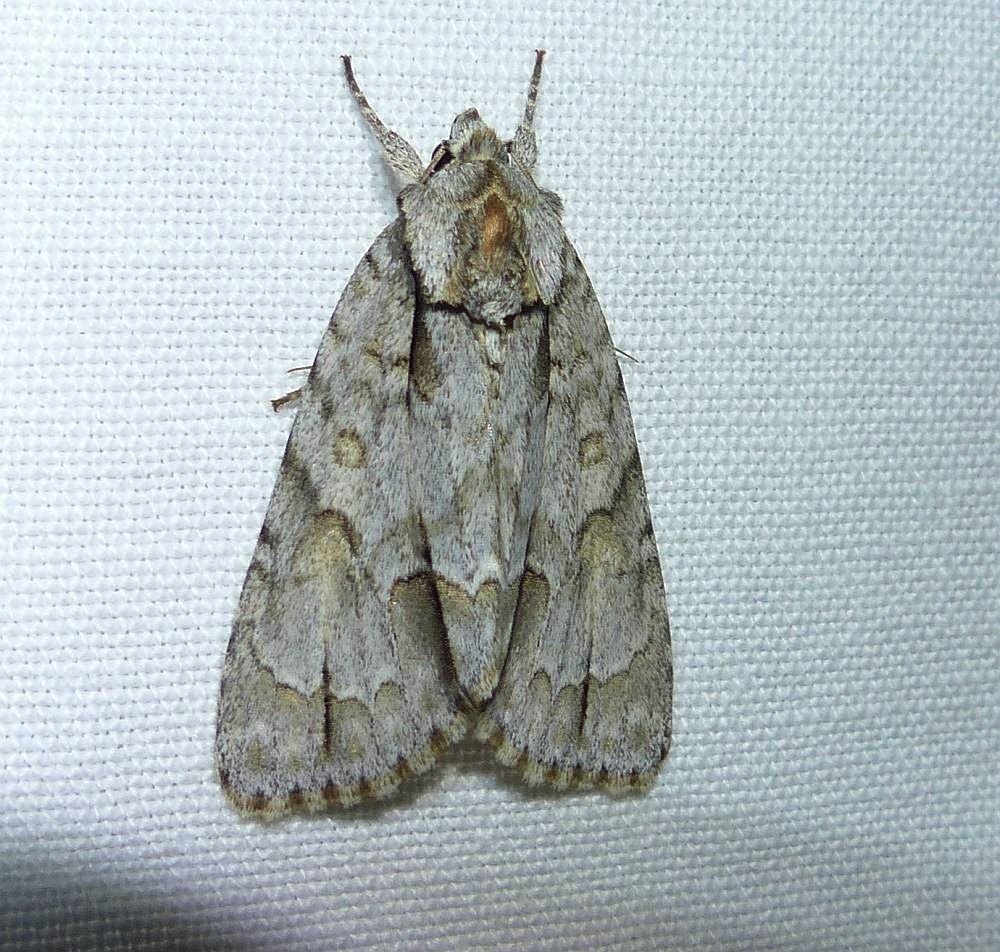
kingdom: Animalia
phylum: Arthropoda
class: Insecta
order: Lepidoptera
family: Noctuidae
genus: Acronicta
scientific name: Acronicta morula
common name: Ochre dagger
